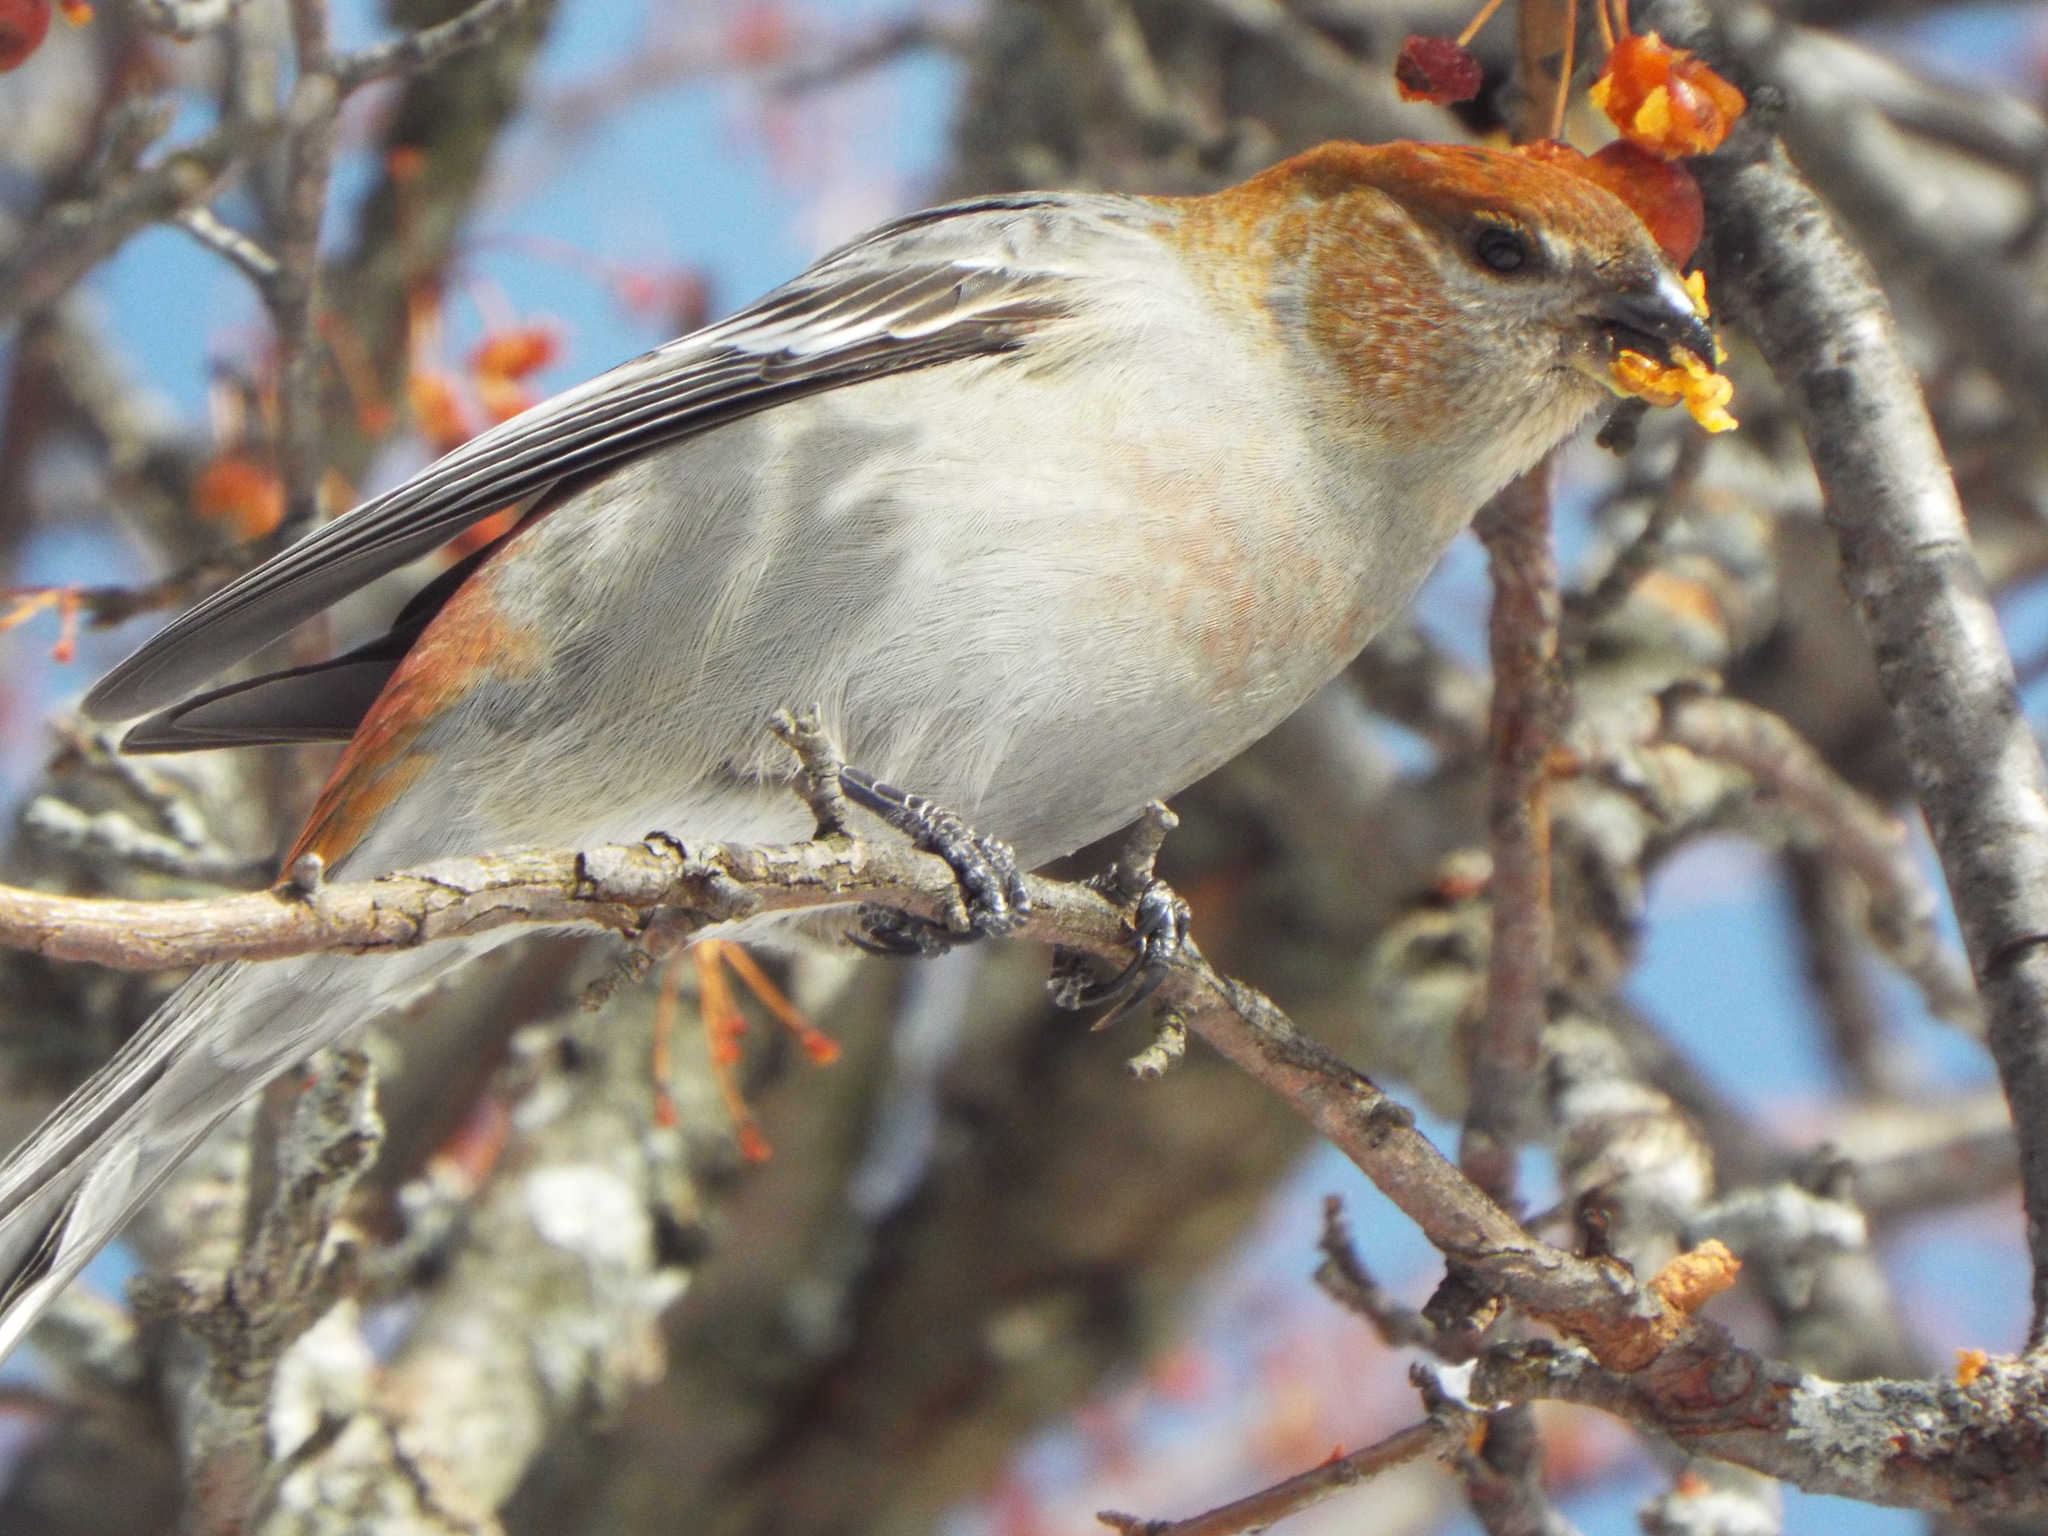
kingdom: Animalia
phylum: Chordata
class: Aves
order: Passeriformes
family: Fringillidae
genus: Pinicola
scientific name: Pinicola enucleator
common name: Pine grosbeak
